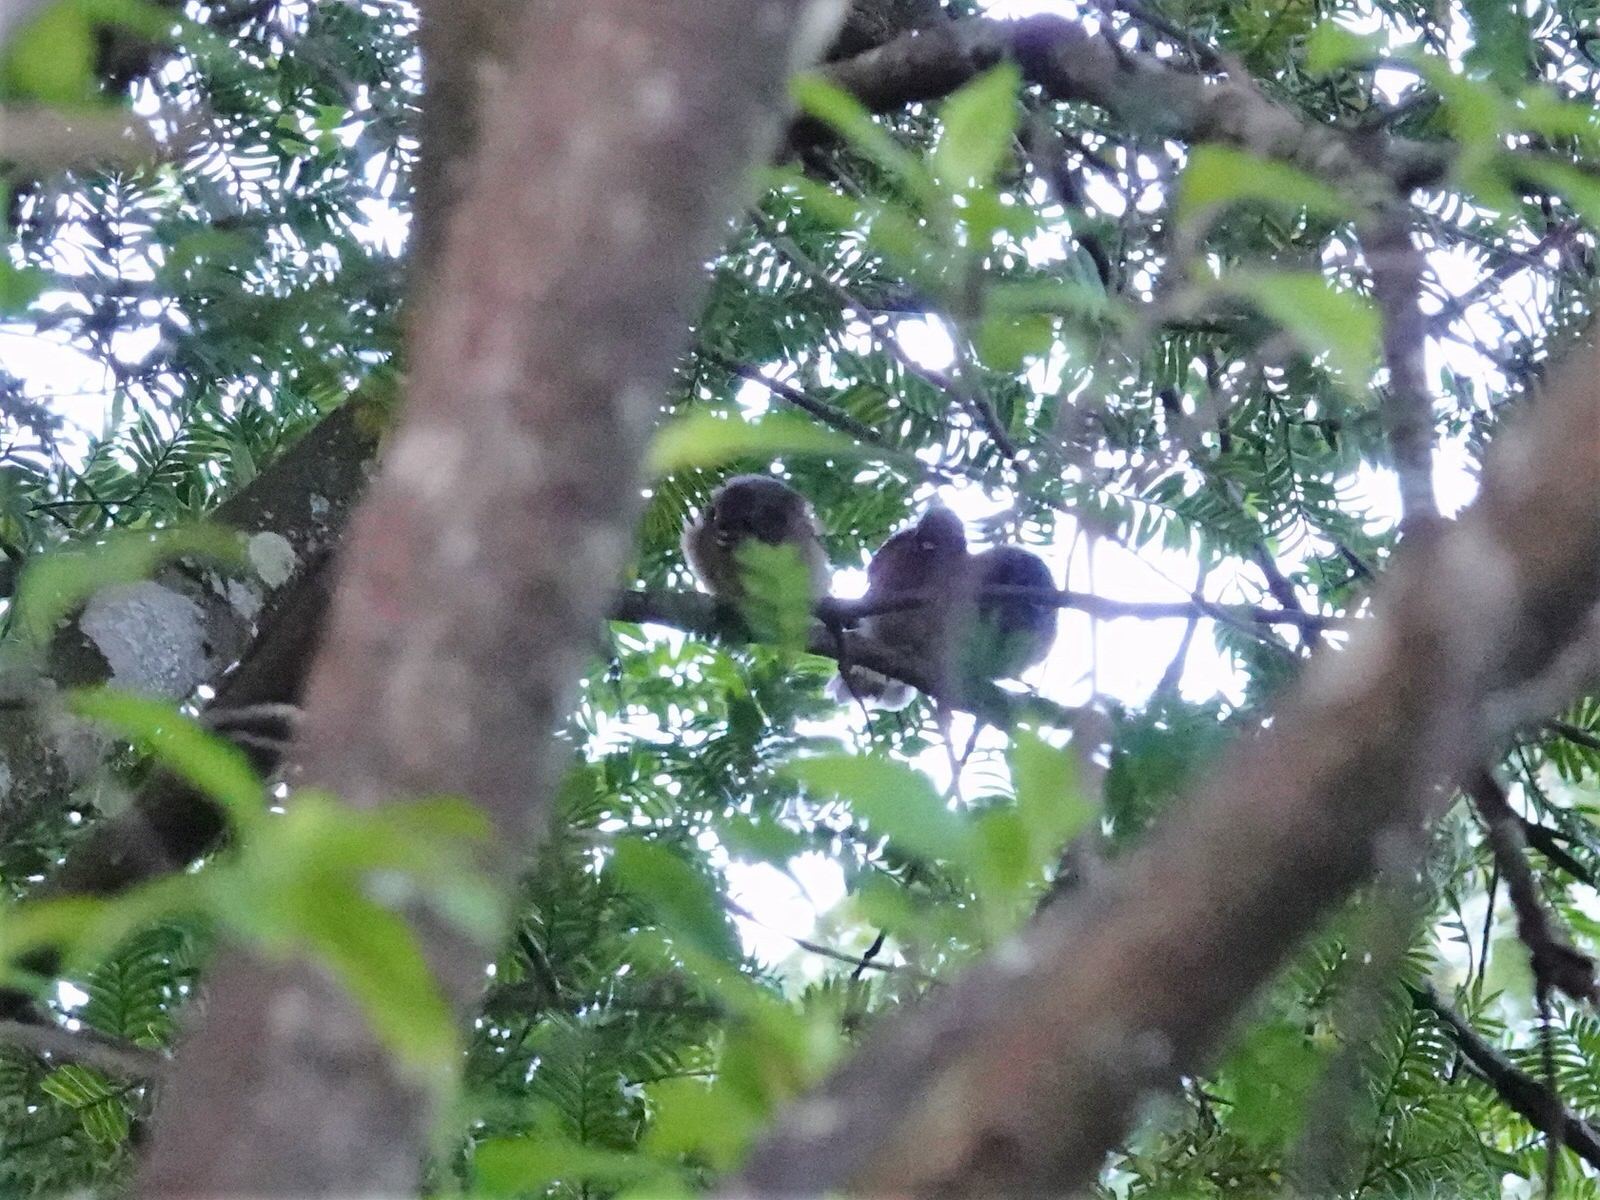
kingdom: Animalia
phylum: Chordata
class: Aves
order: Passeriformes
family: Rhipiduridae
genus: Rhipidura
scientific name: Rhipidura fuliginosa
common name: New zealand fantail
